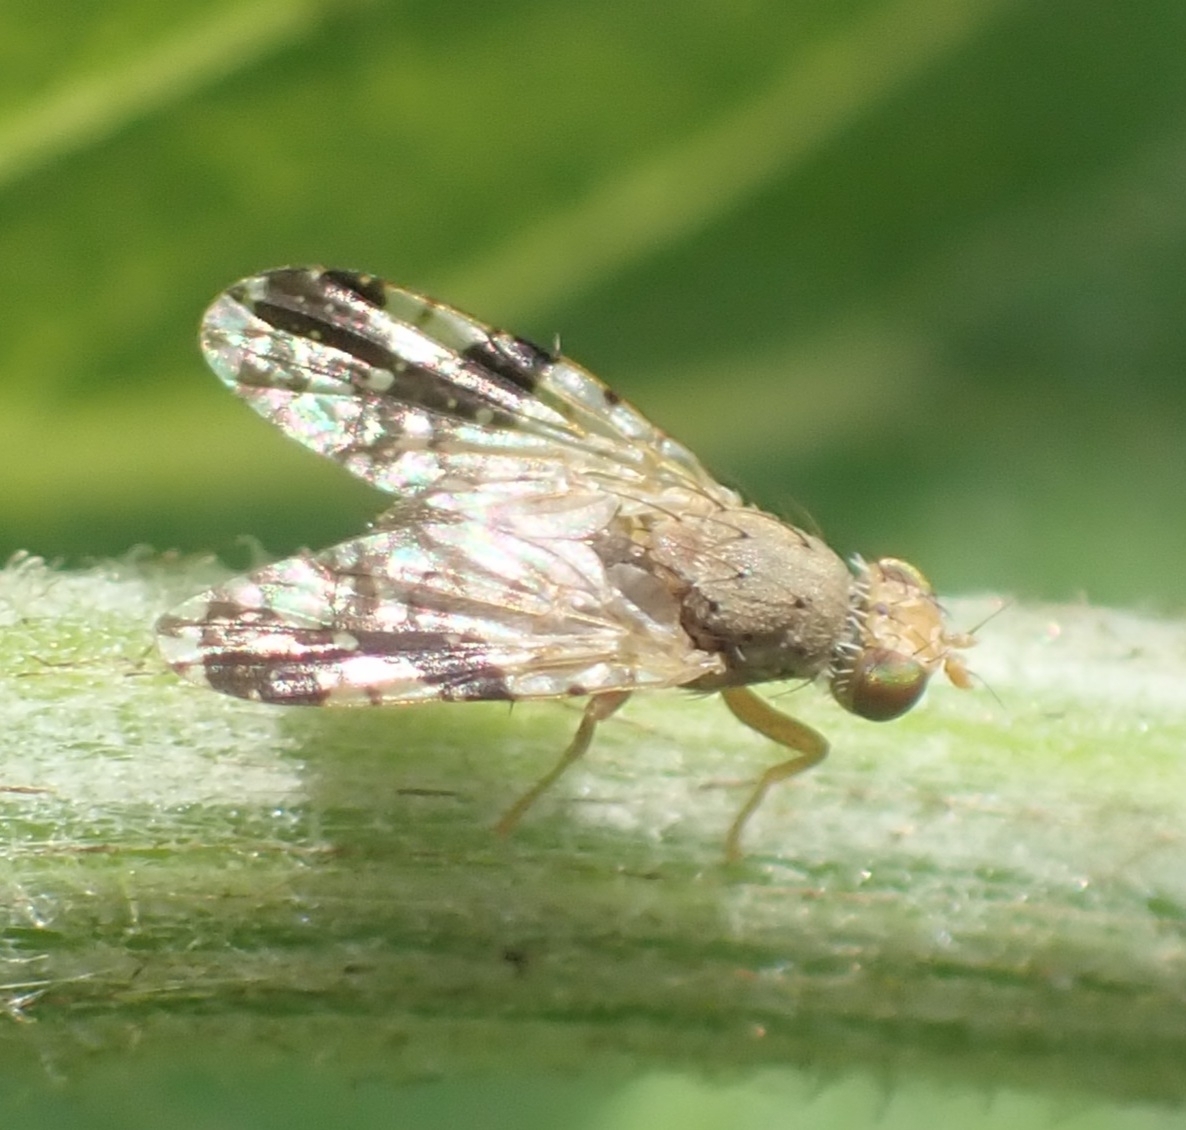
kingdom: Animalia
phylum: Arthropoda
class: Insecta
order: Diptera
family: Tephritidae
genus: Tephritis
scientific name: Tephritis bardanae
